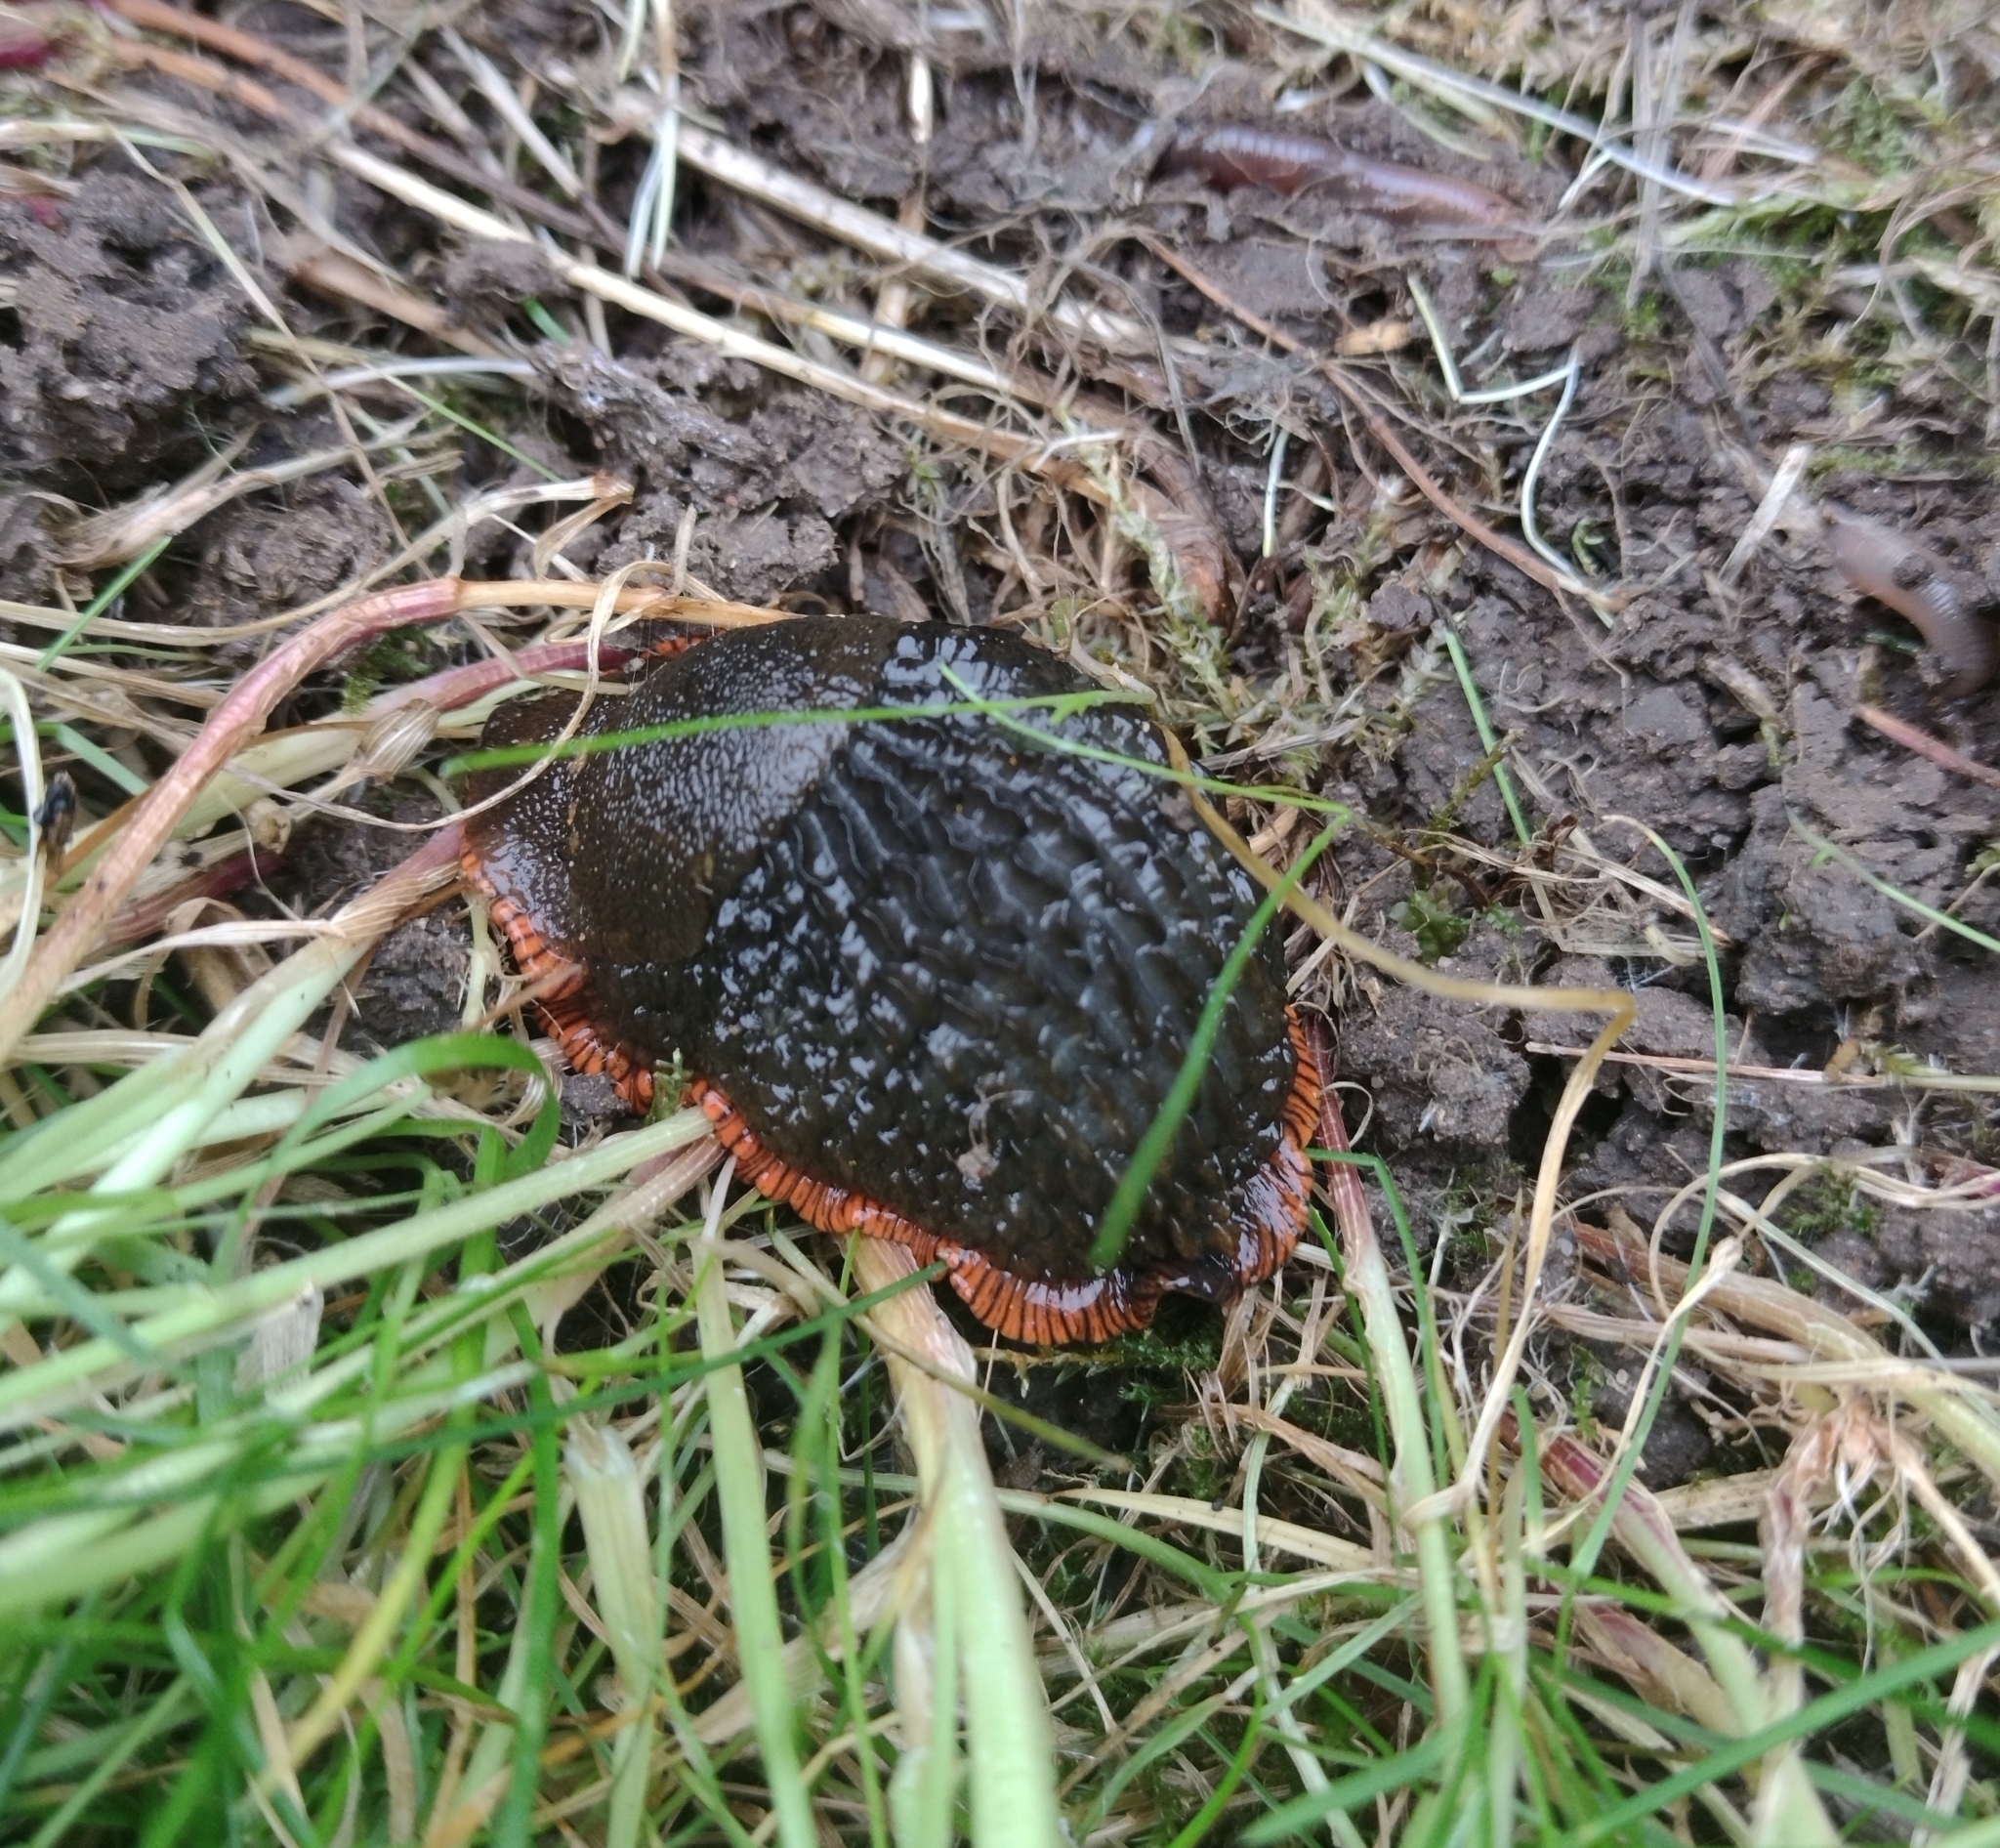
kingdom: Animalia
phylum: Mollusca
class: Gastropoda
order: Stylommatophora
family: Arionidae
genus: Arion
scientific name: Arion
